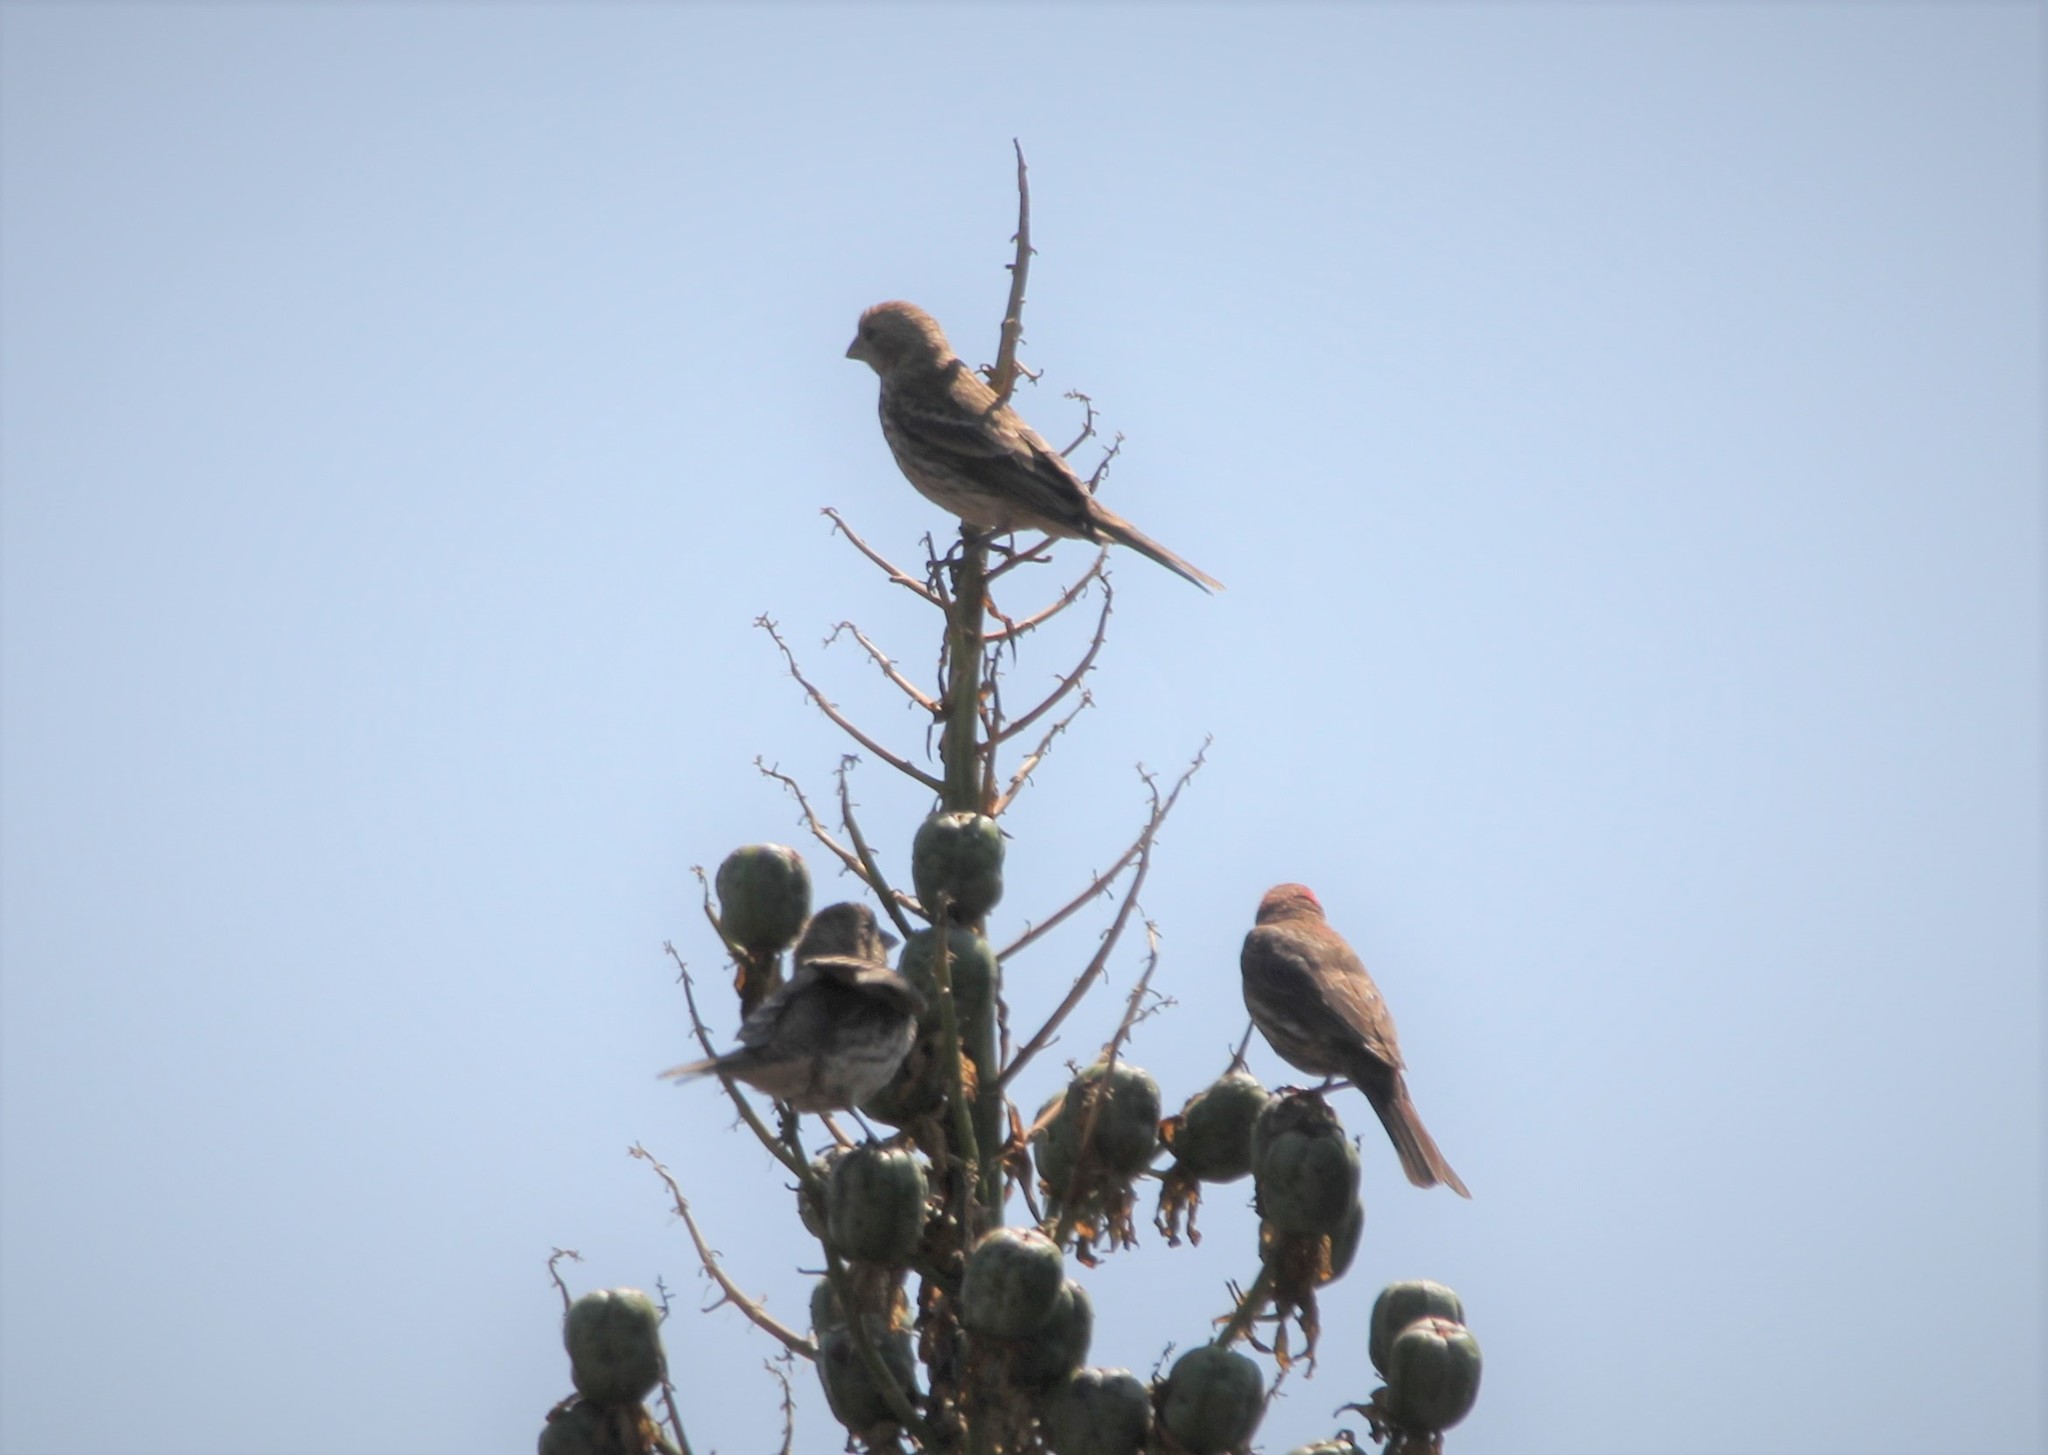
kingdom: Animalia
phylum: Chordata
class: Aves
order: Passeriformes
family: Fringillidae
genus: Haemorhous
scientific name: Haemorhous mexicanus
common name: House finch
